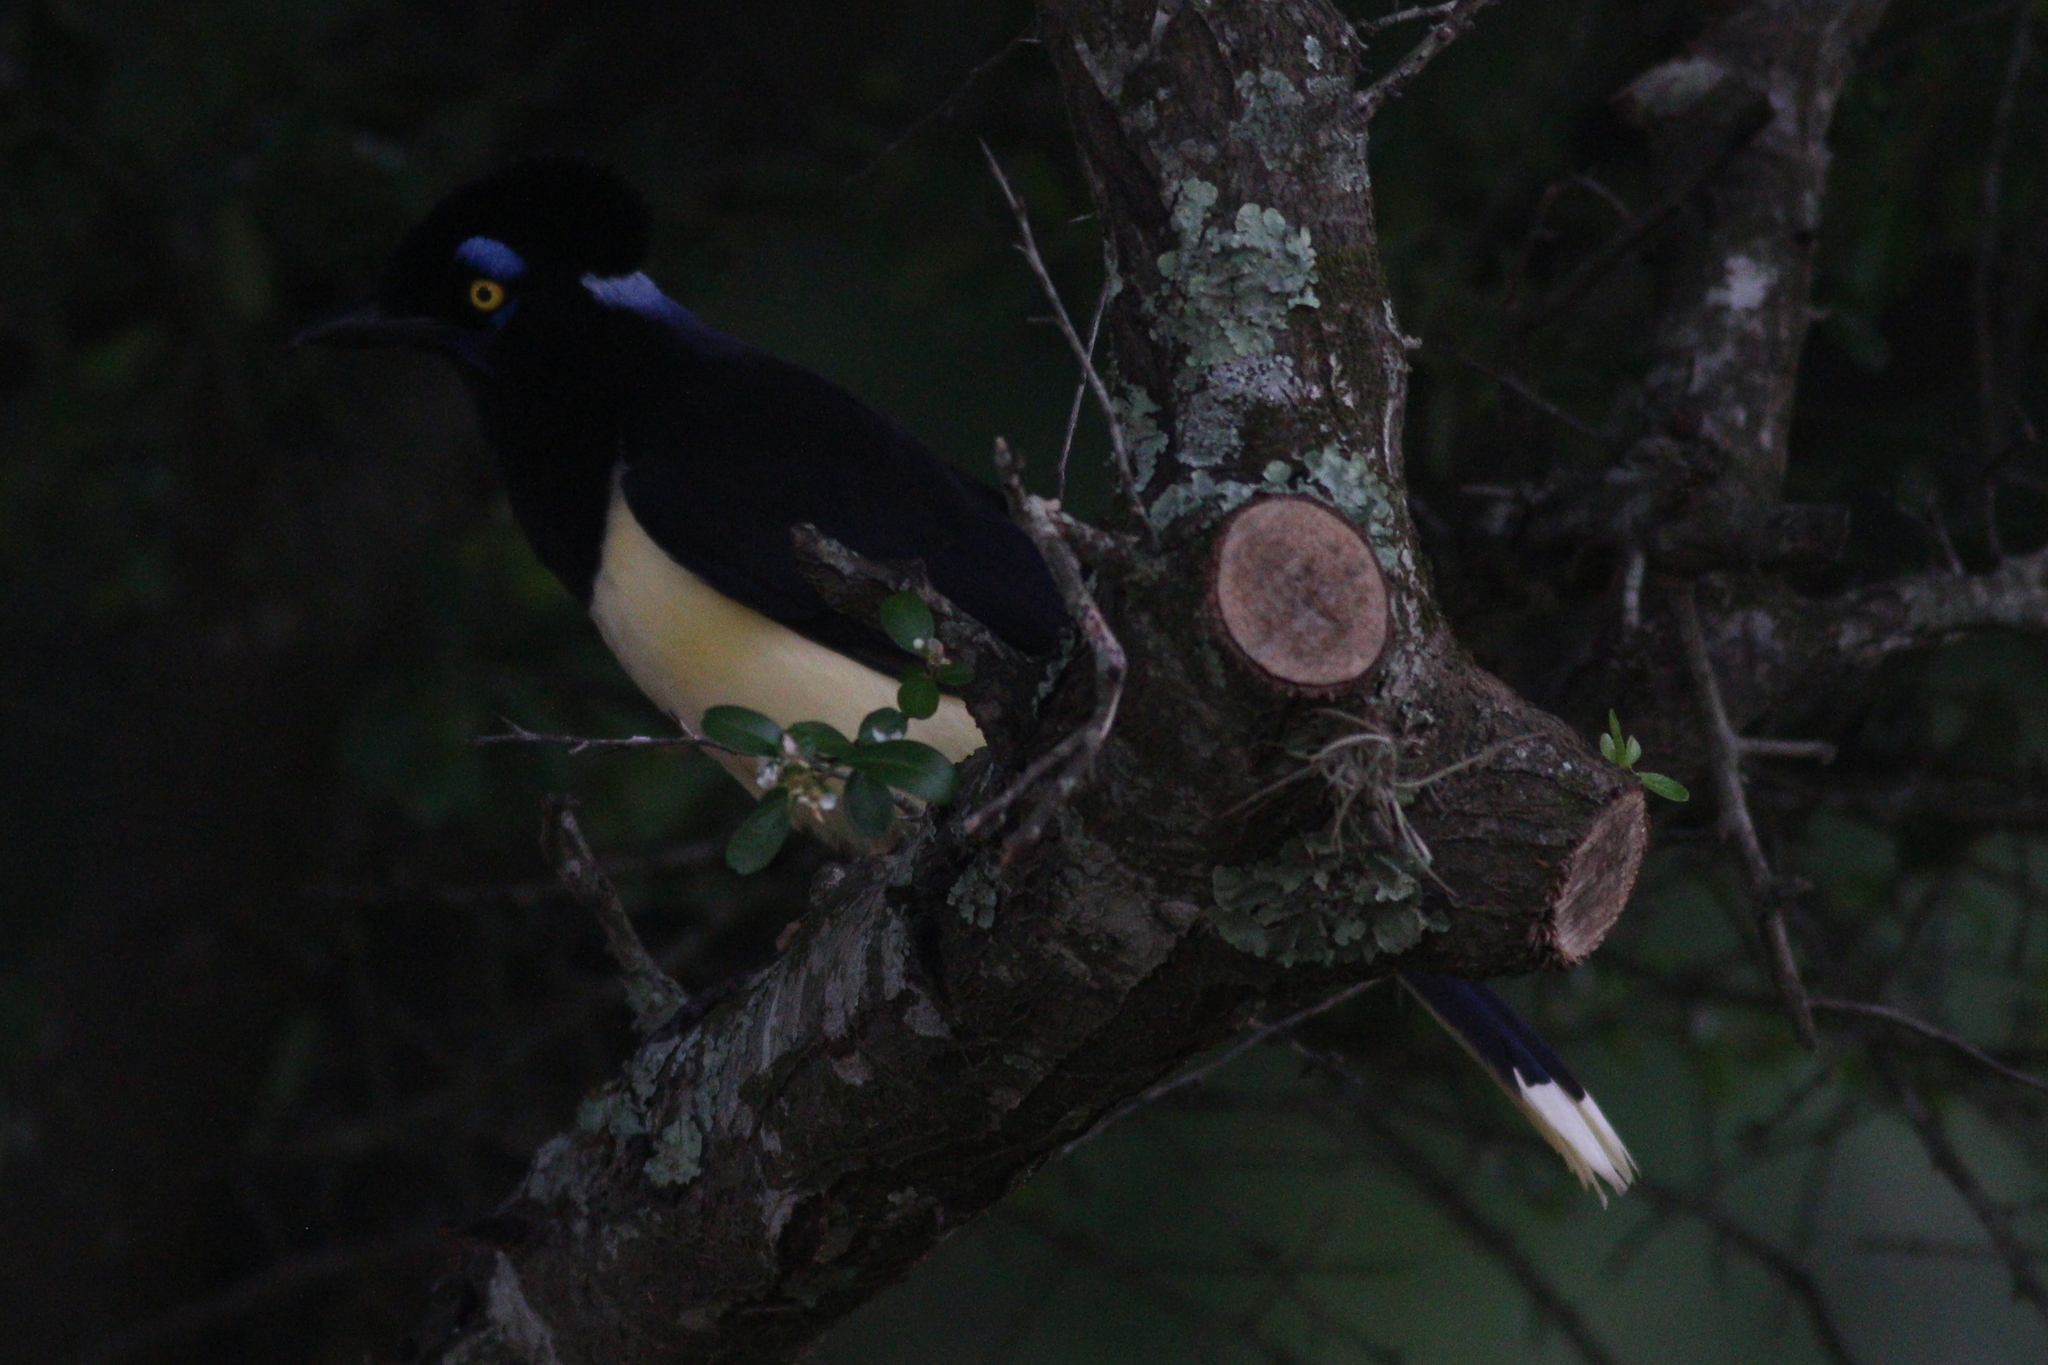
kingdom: Animalia
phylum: Chordata
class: Aves
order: Passeriformes
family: Corvidae
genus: Cyanocorax
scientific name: Cyanocorax chrysops
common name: Plush-crested jay
